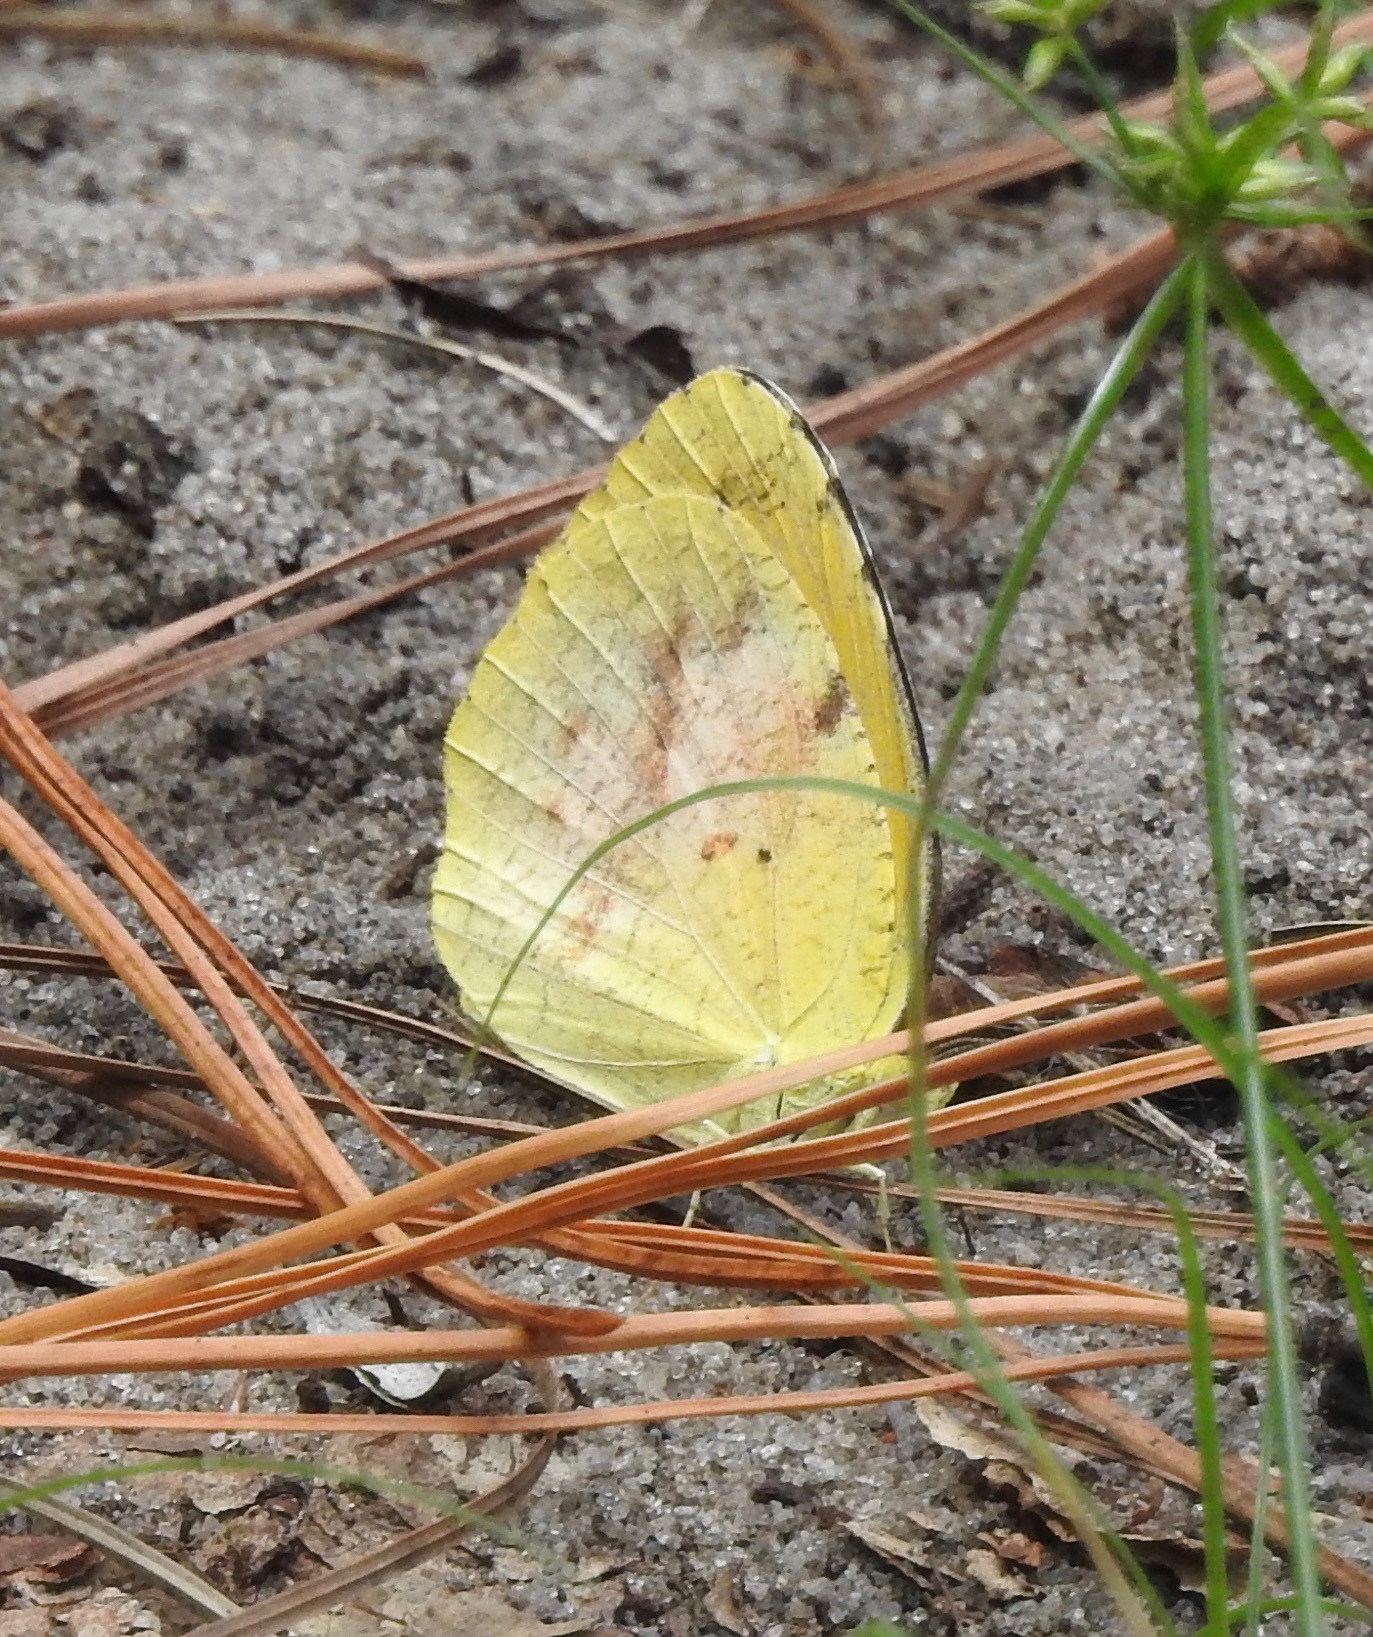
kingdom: Animalia
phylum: Arthropoda
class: Insecta
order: Lepidoptera
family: Pieridae
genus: Abaeis
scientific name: Abaeis nicippe
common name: Sleepy orange
